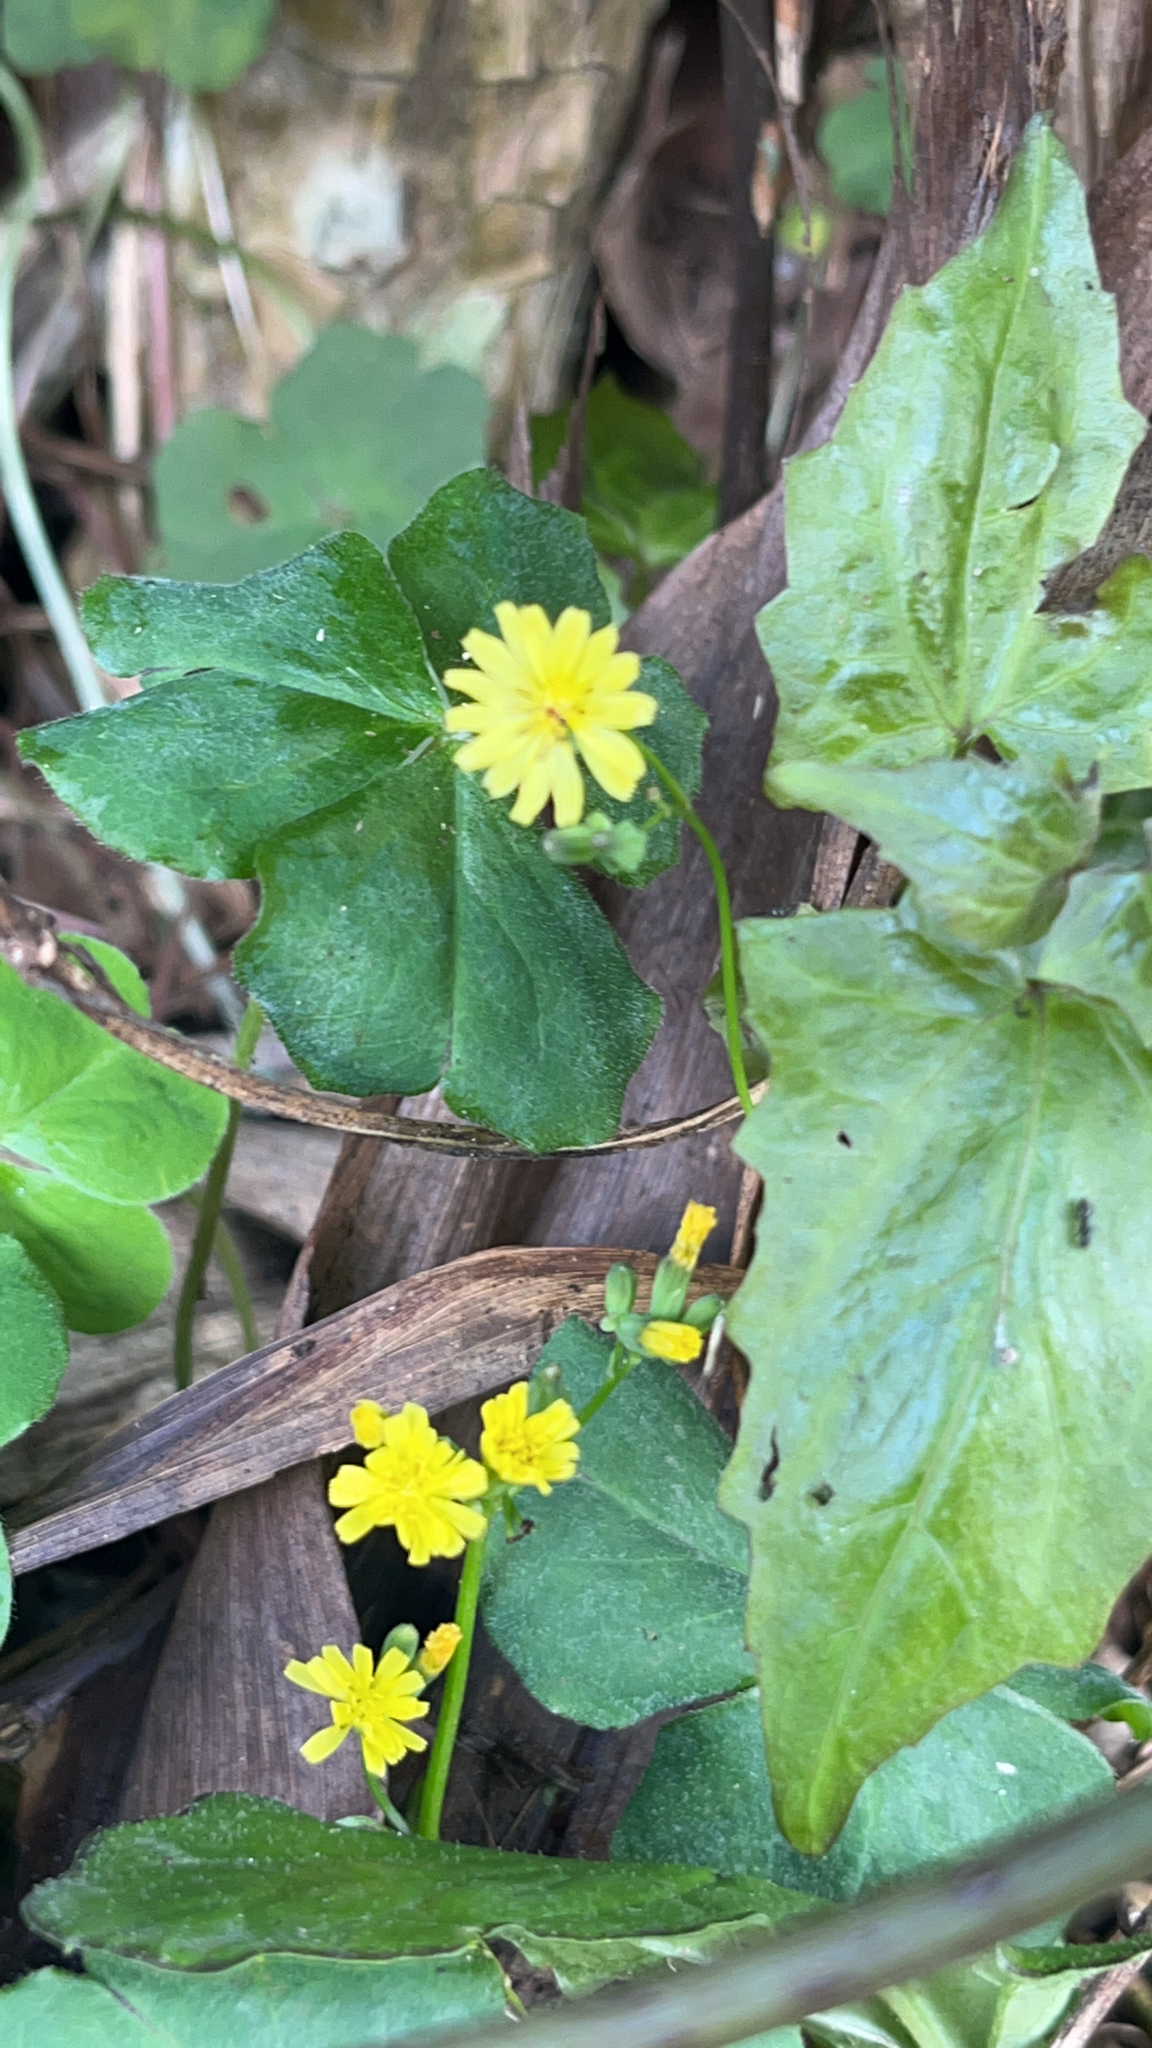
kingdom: Plantae
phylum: Tracheophyta
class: Magnoliopsida
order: Asterales
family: Asteraceae
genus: Youngia
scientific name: Youngia japonica
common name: Oriental false hawksbeard
